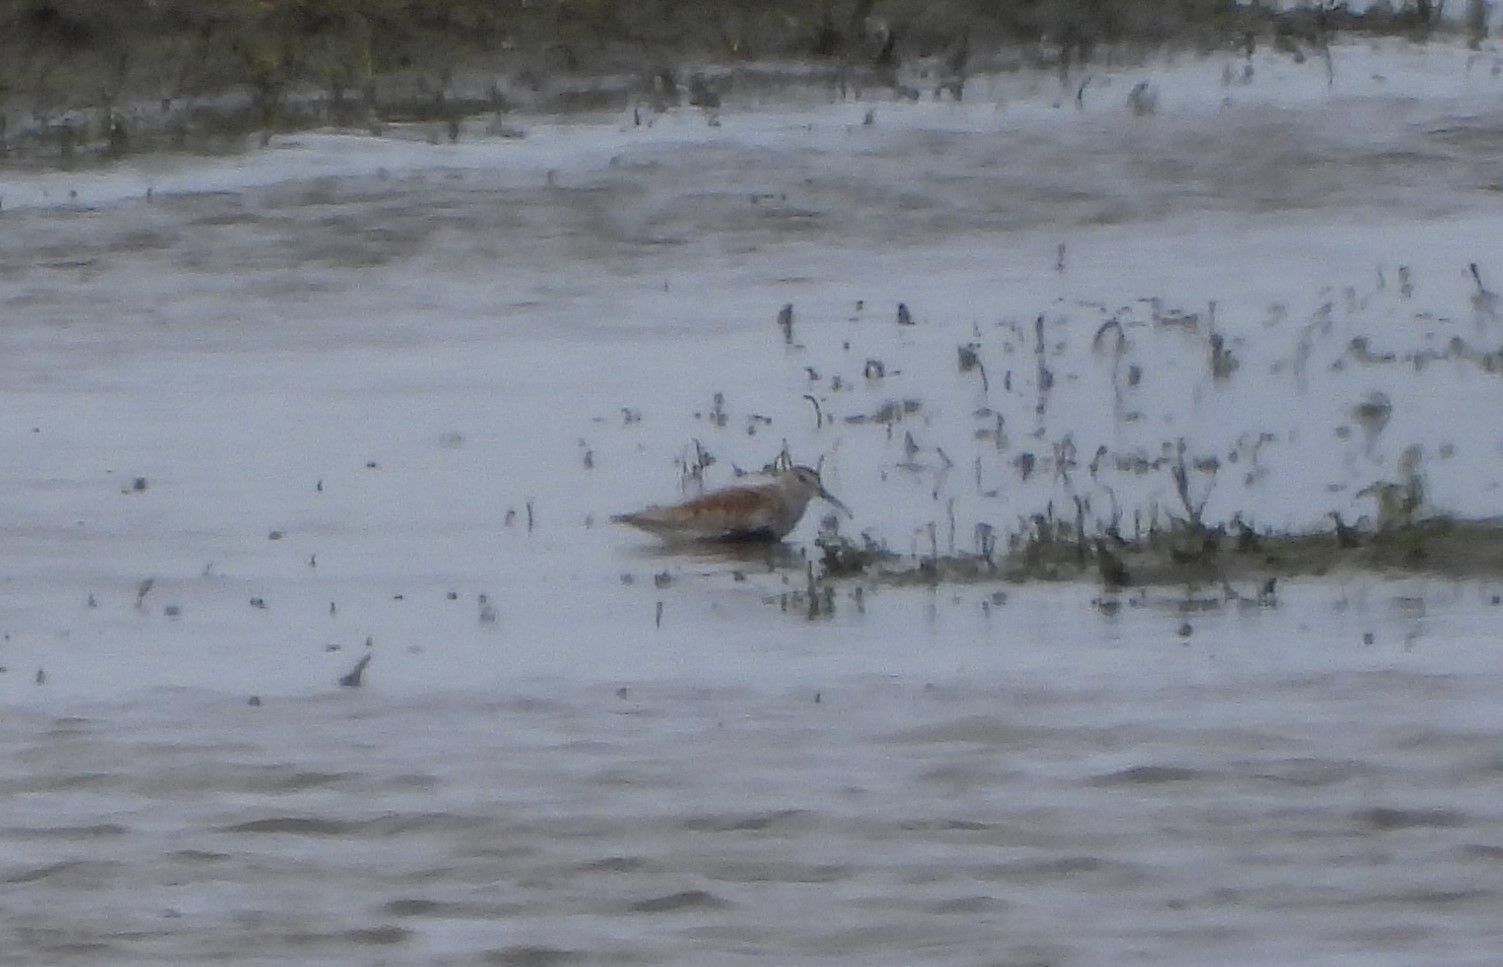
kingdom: Animalia
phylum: Chordata
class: Aves
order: Charadriiformes
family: Scolopacidae
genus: Calidris
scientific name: Calidris alpina
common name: Dunlin
